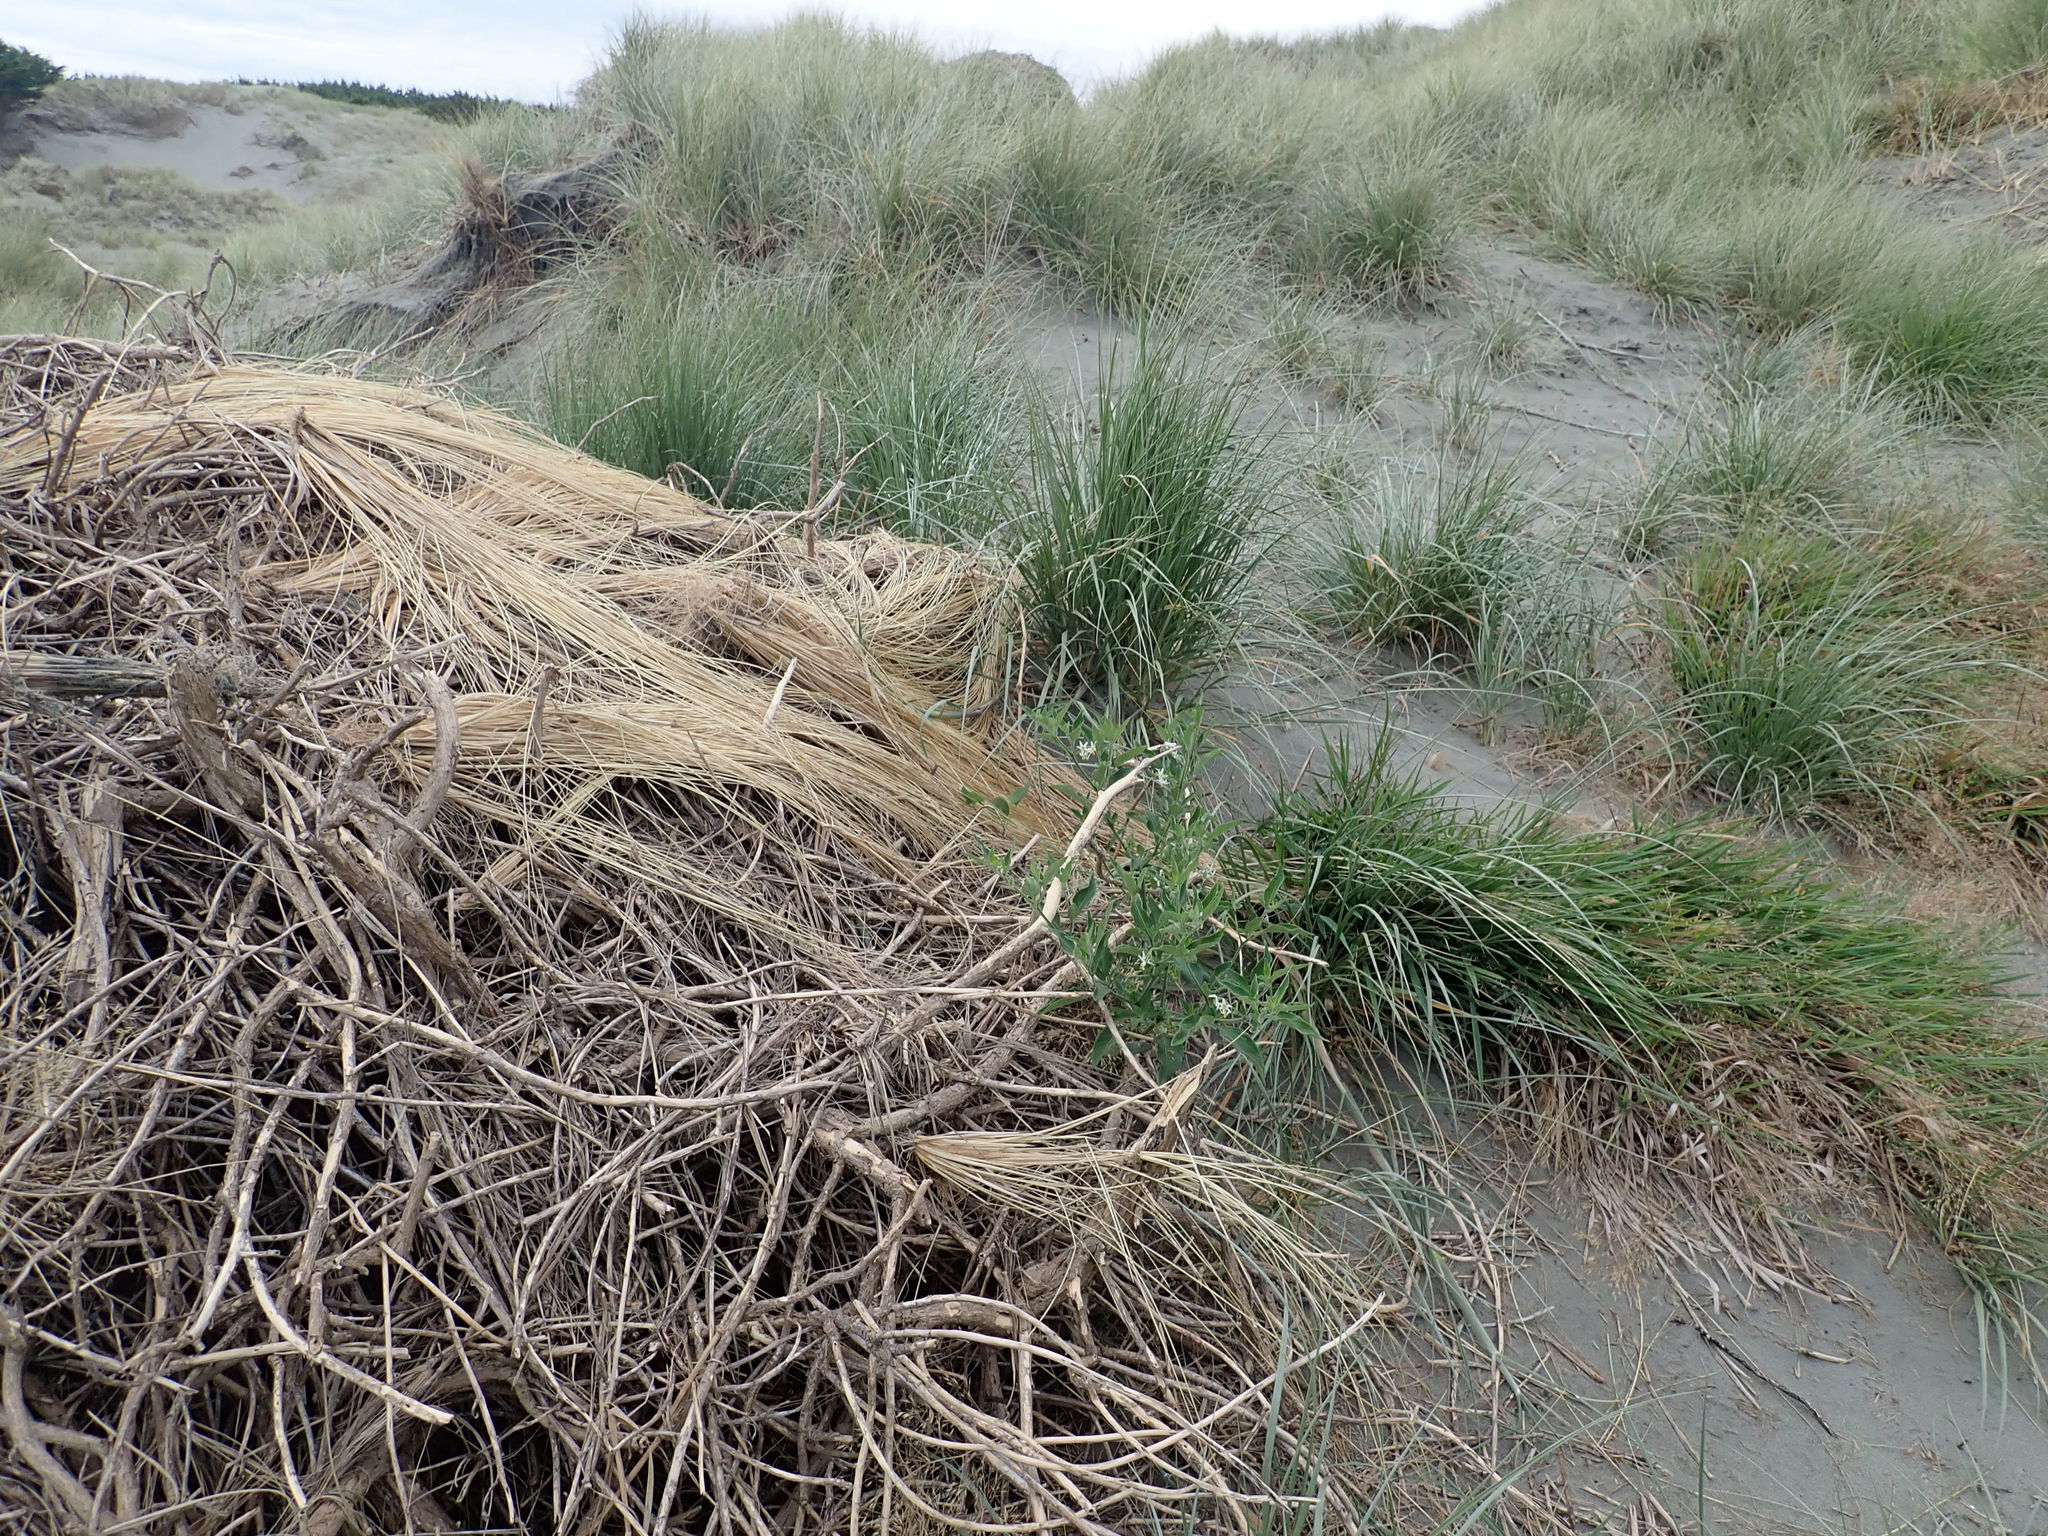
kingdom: Plantae
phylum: Tracheophyta
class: Magnoliopsida
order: Solanales
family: Solanaceae
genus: Solanum
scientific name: Solanum chenopodioides
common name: Tall nightshade
